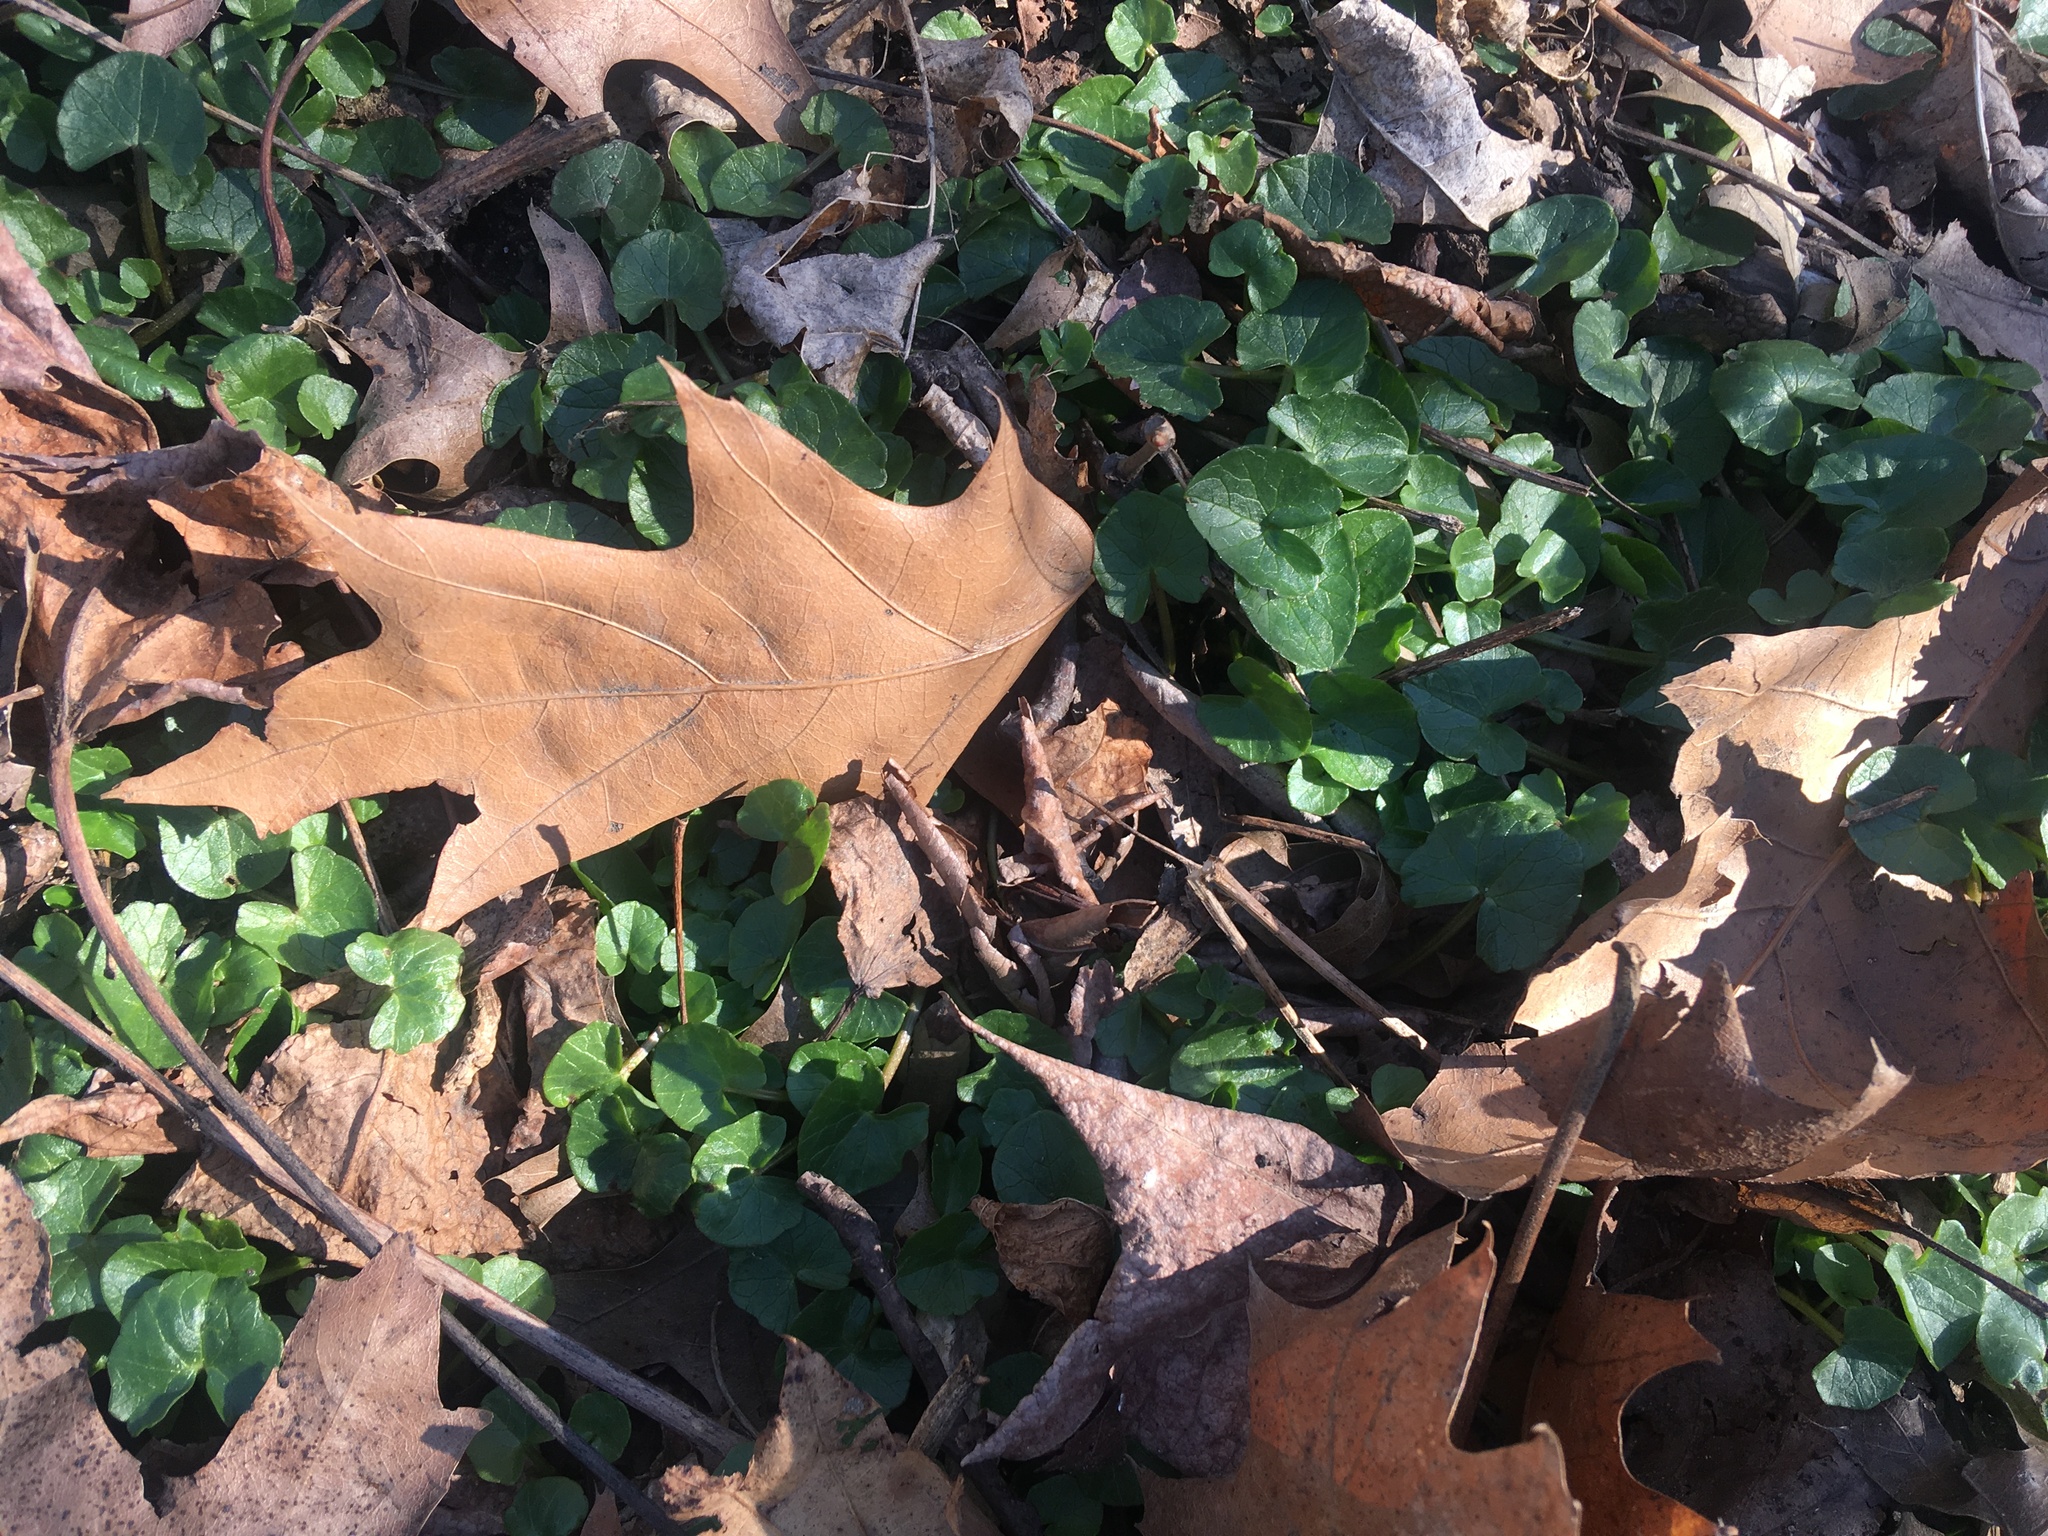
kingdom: Plantae
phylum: Tracheophyta
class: Magnoliopsida
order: Ranunculales
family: Ranunculaceae
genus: Ficaria
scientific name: Ficaria verna
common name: Lesser celandine
